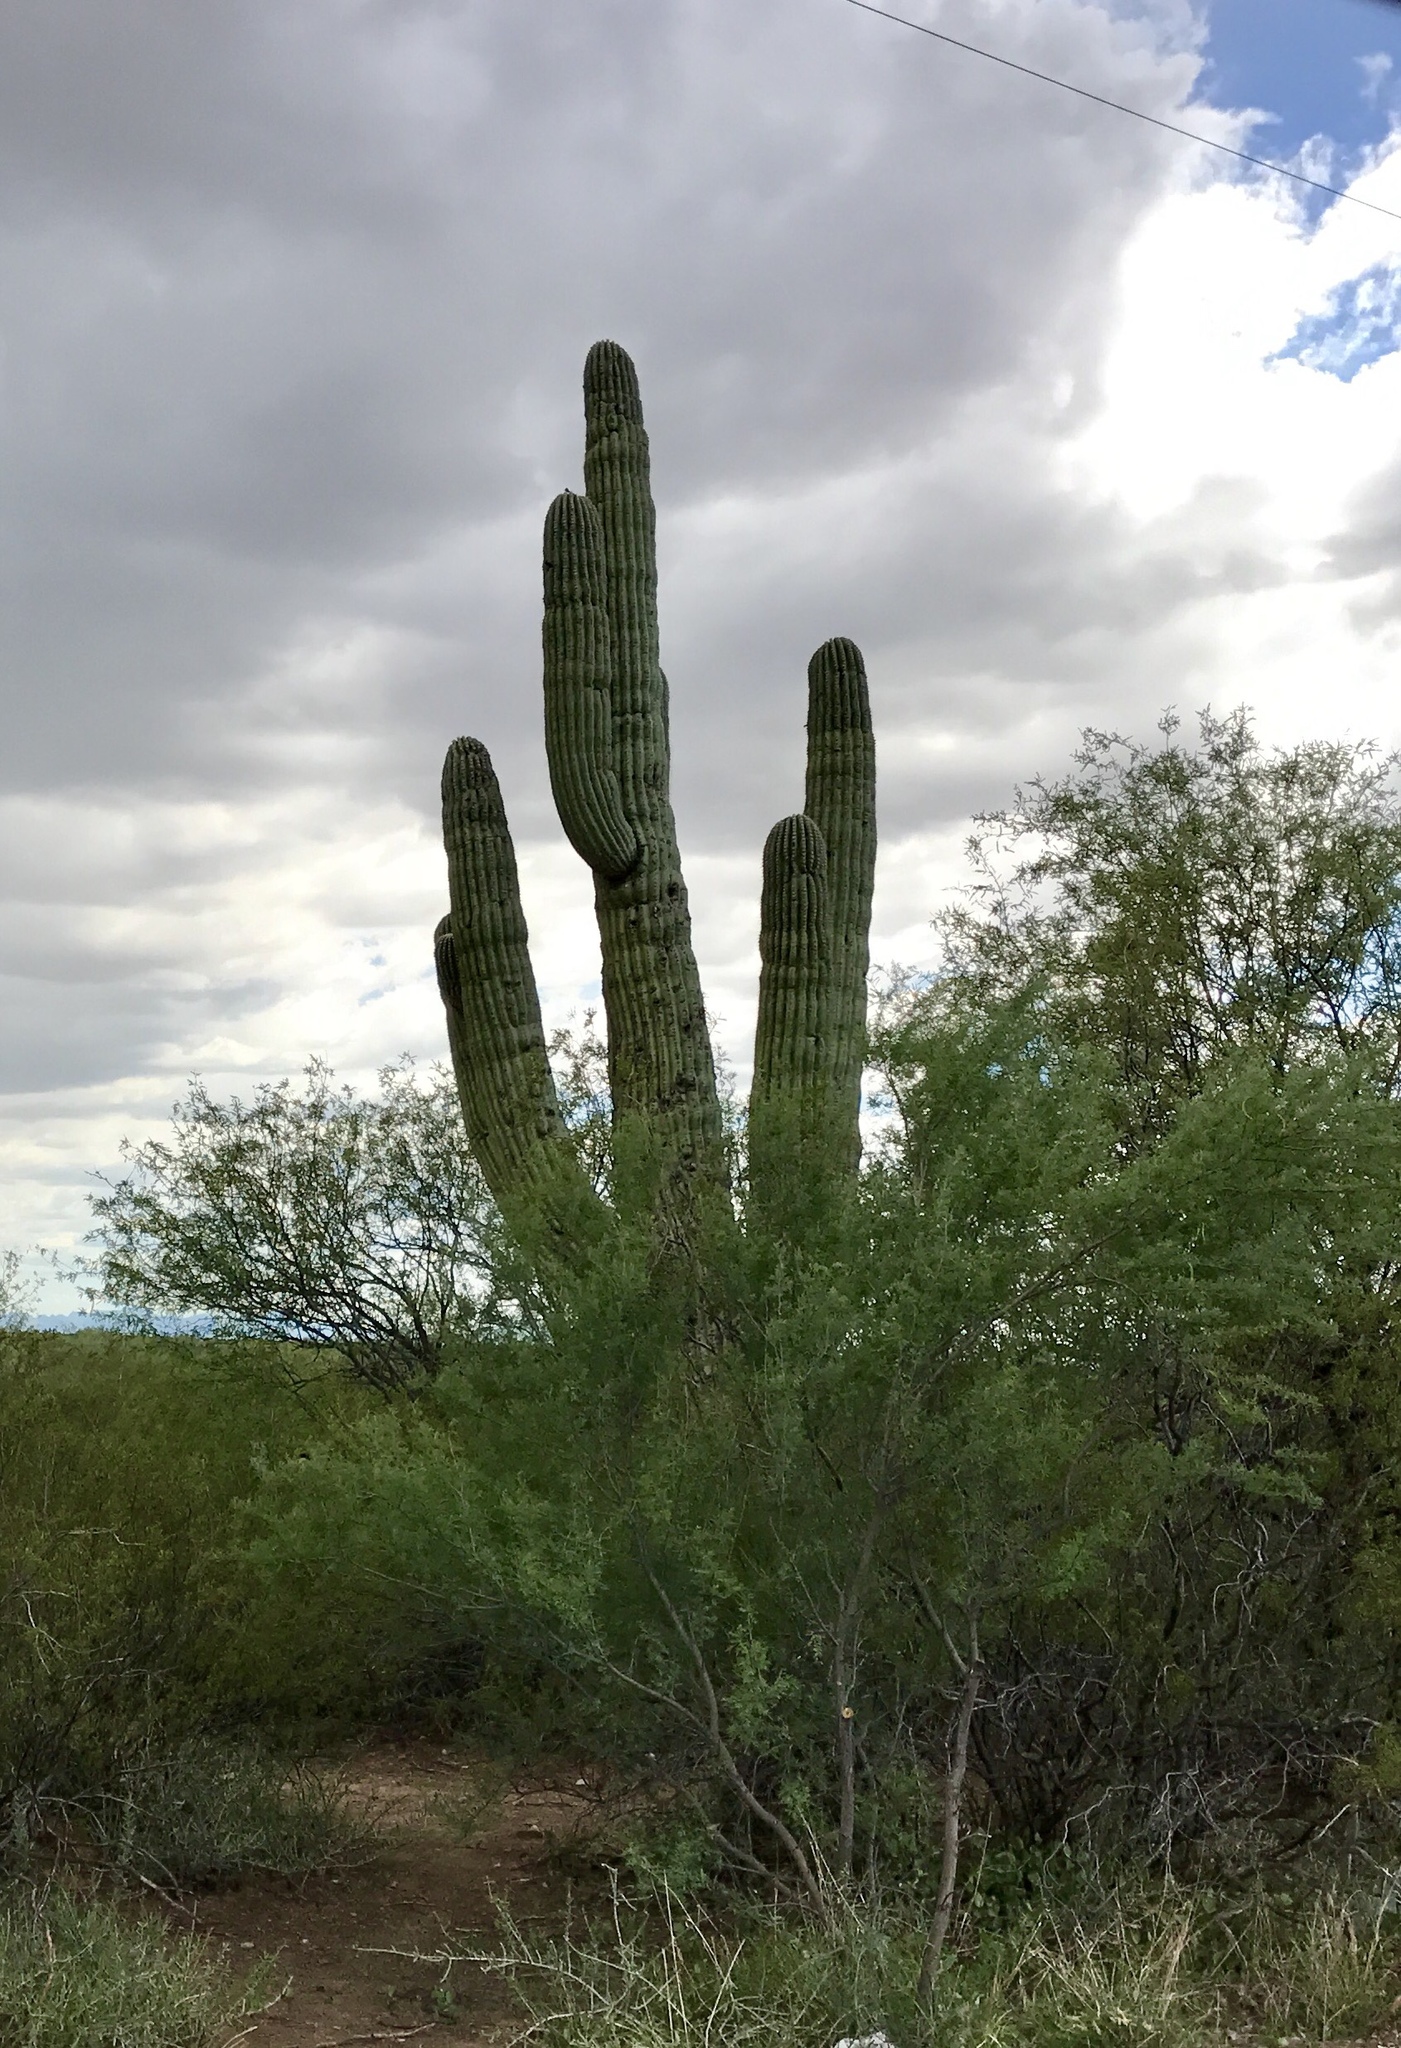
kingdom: Plantae
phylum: Tracheophyta
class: Magnoliopsida
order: Caryophyllales
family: Cactaceae
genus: Carnegiea
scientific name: Carnegiea gigantea
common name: Saguaro
